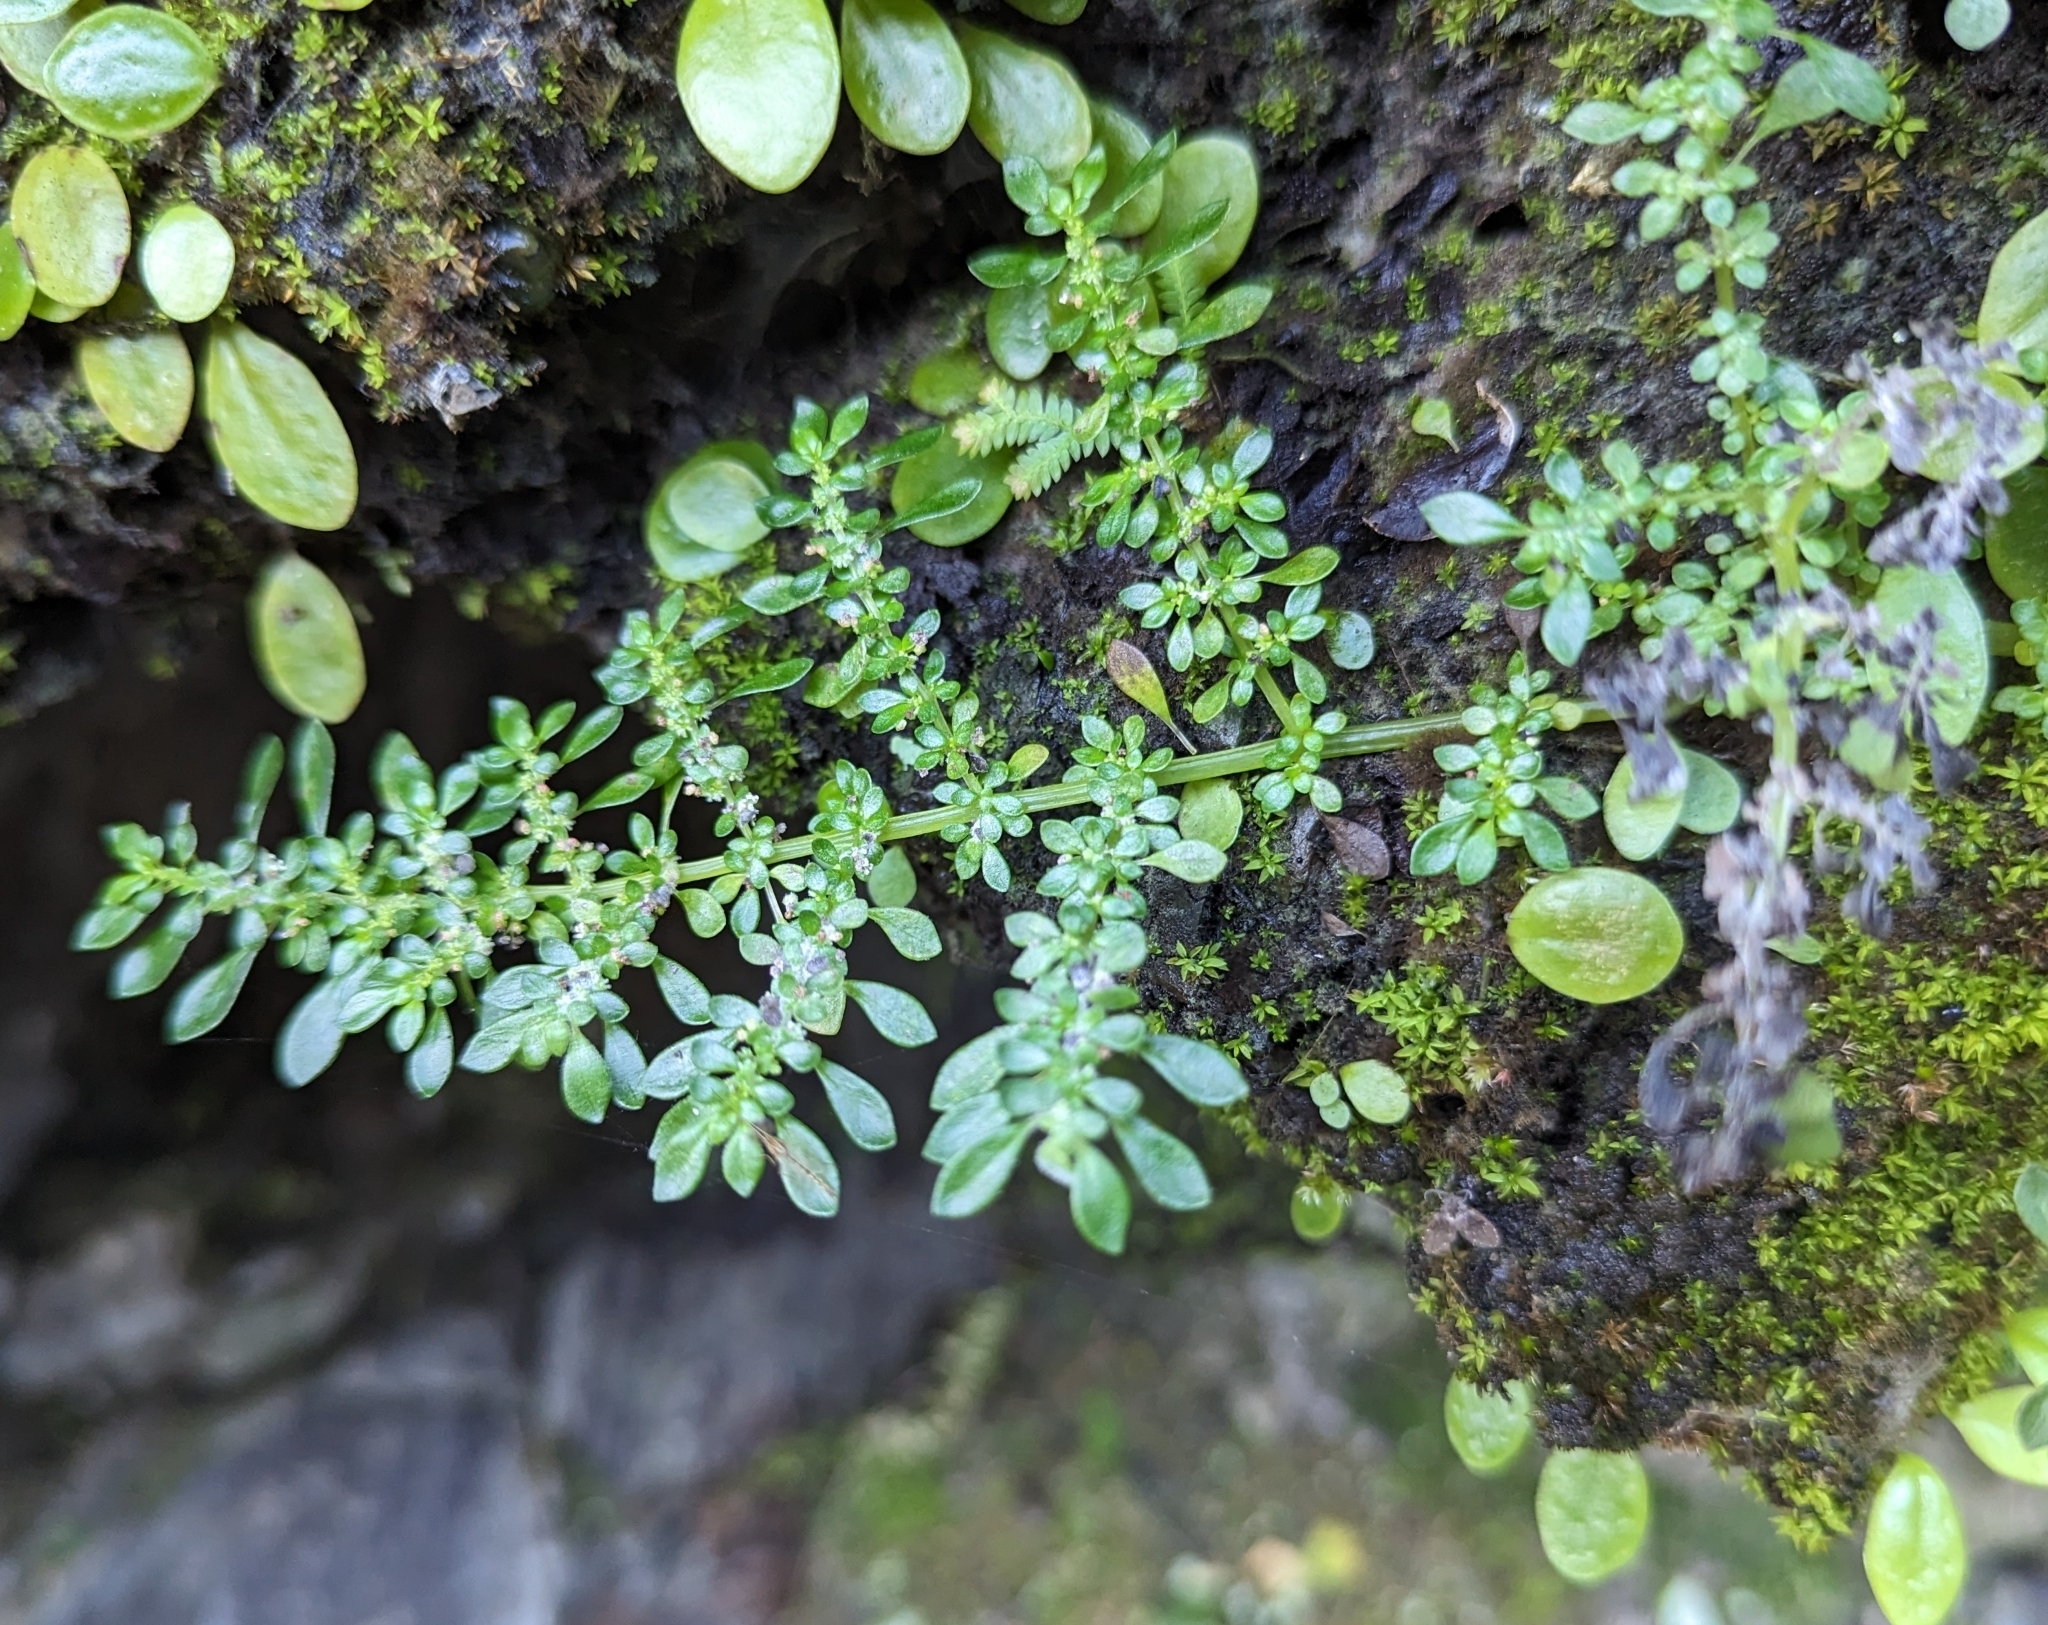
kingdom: Plantae
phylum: Tracheophyta
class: Magnoliopsida
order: Rosales
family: Urticaceae
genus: Pilea
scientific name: Pilea microphylla
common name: Artillery-plant
